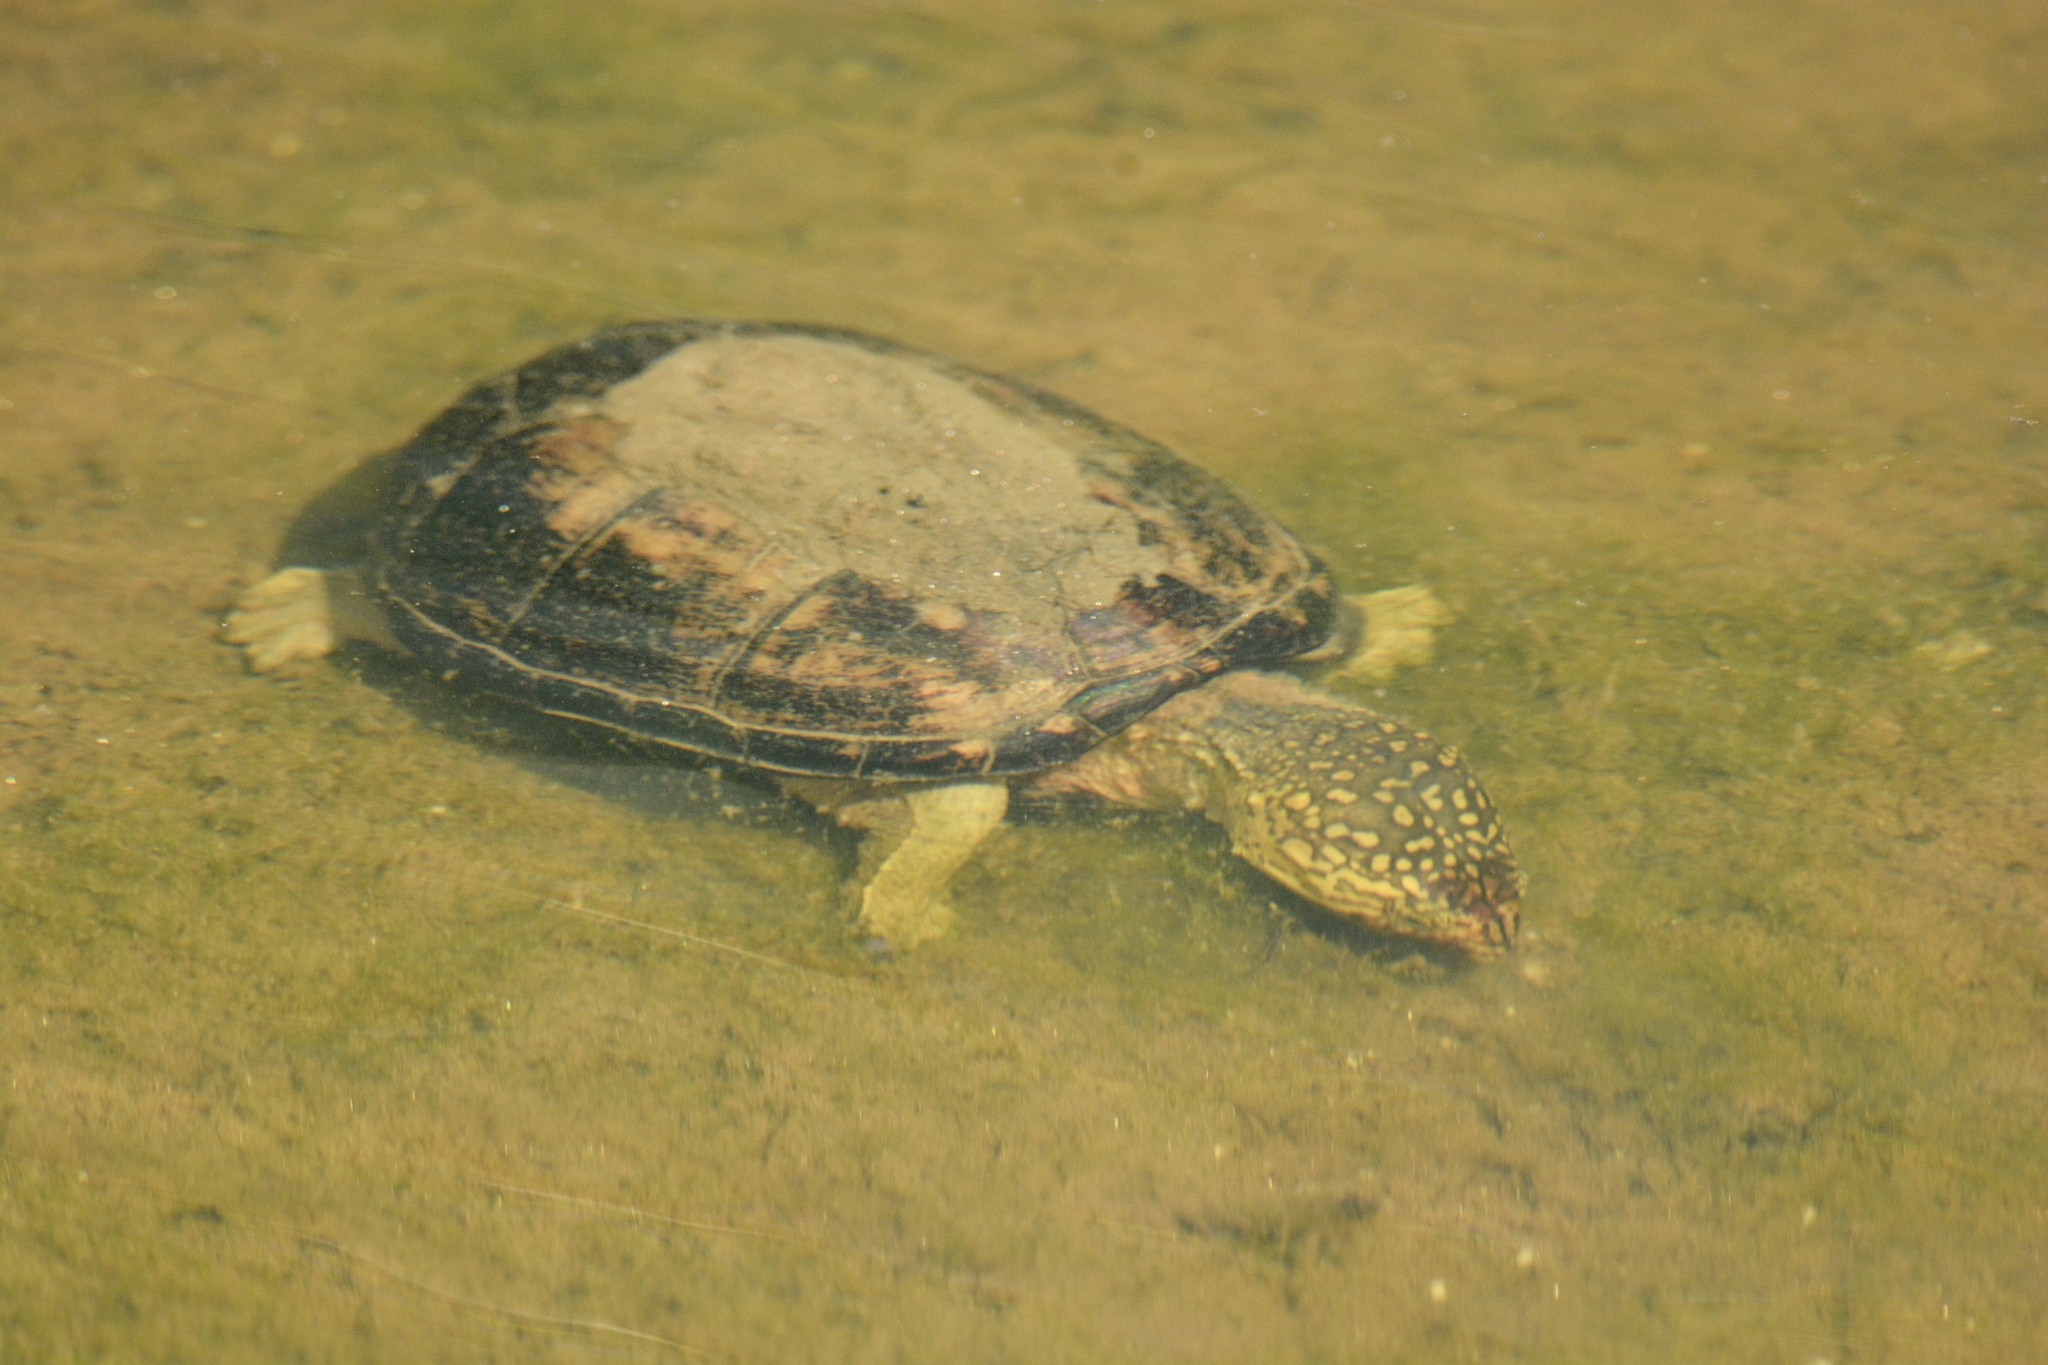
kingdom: Animalia
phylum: Chordata
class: Testudines
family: Kinosternidae
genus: Kinosternon
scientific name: Kinosternon subrubrum
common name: Eastern mud turtle
